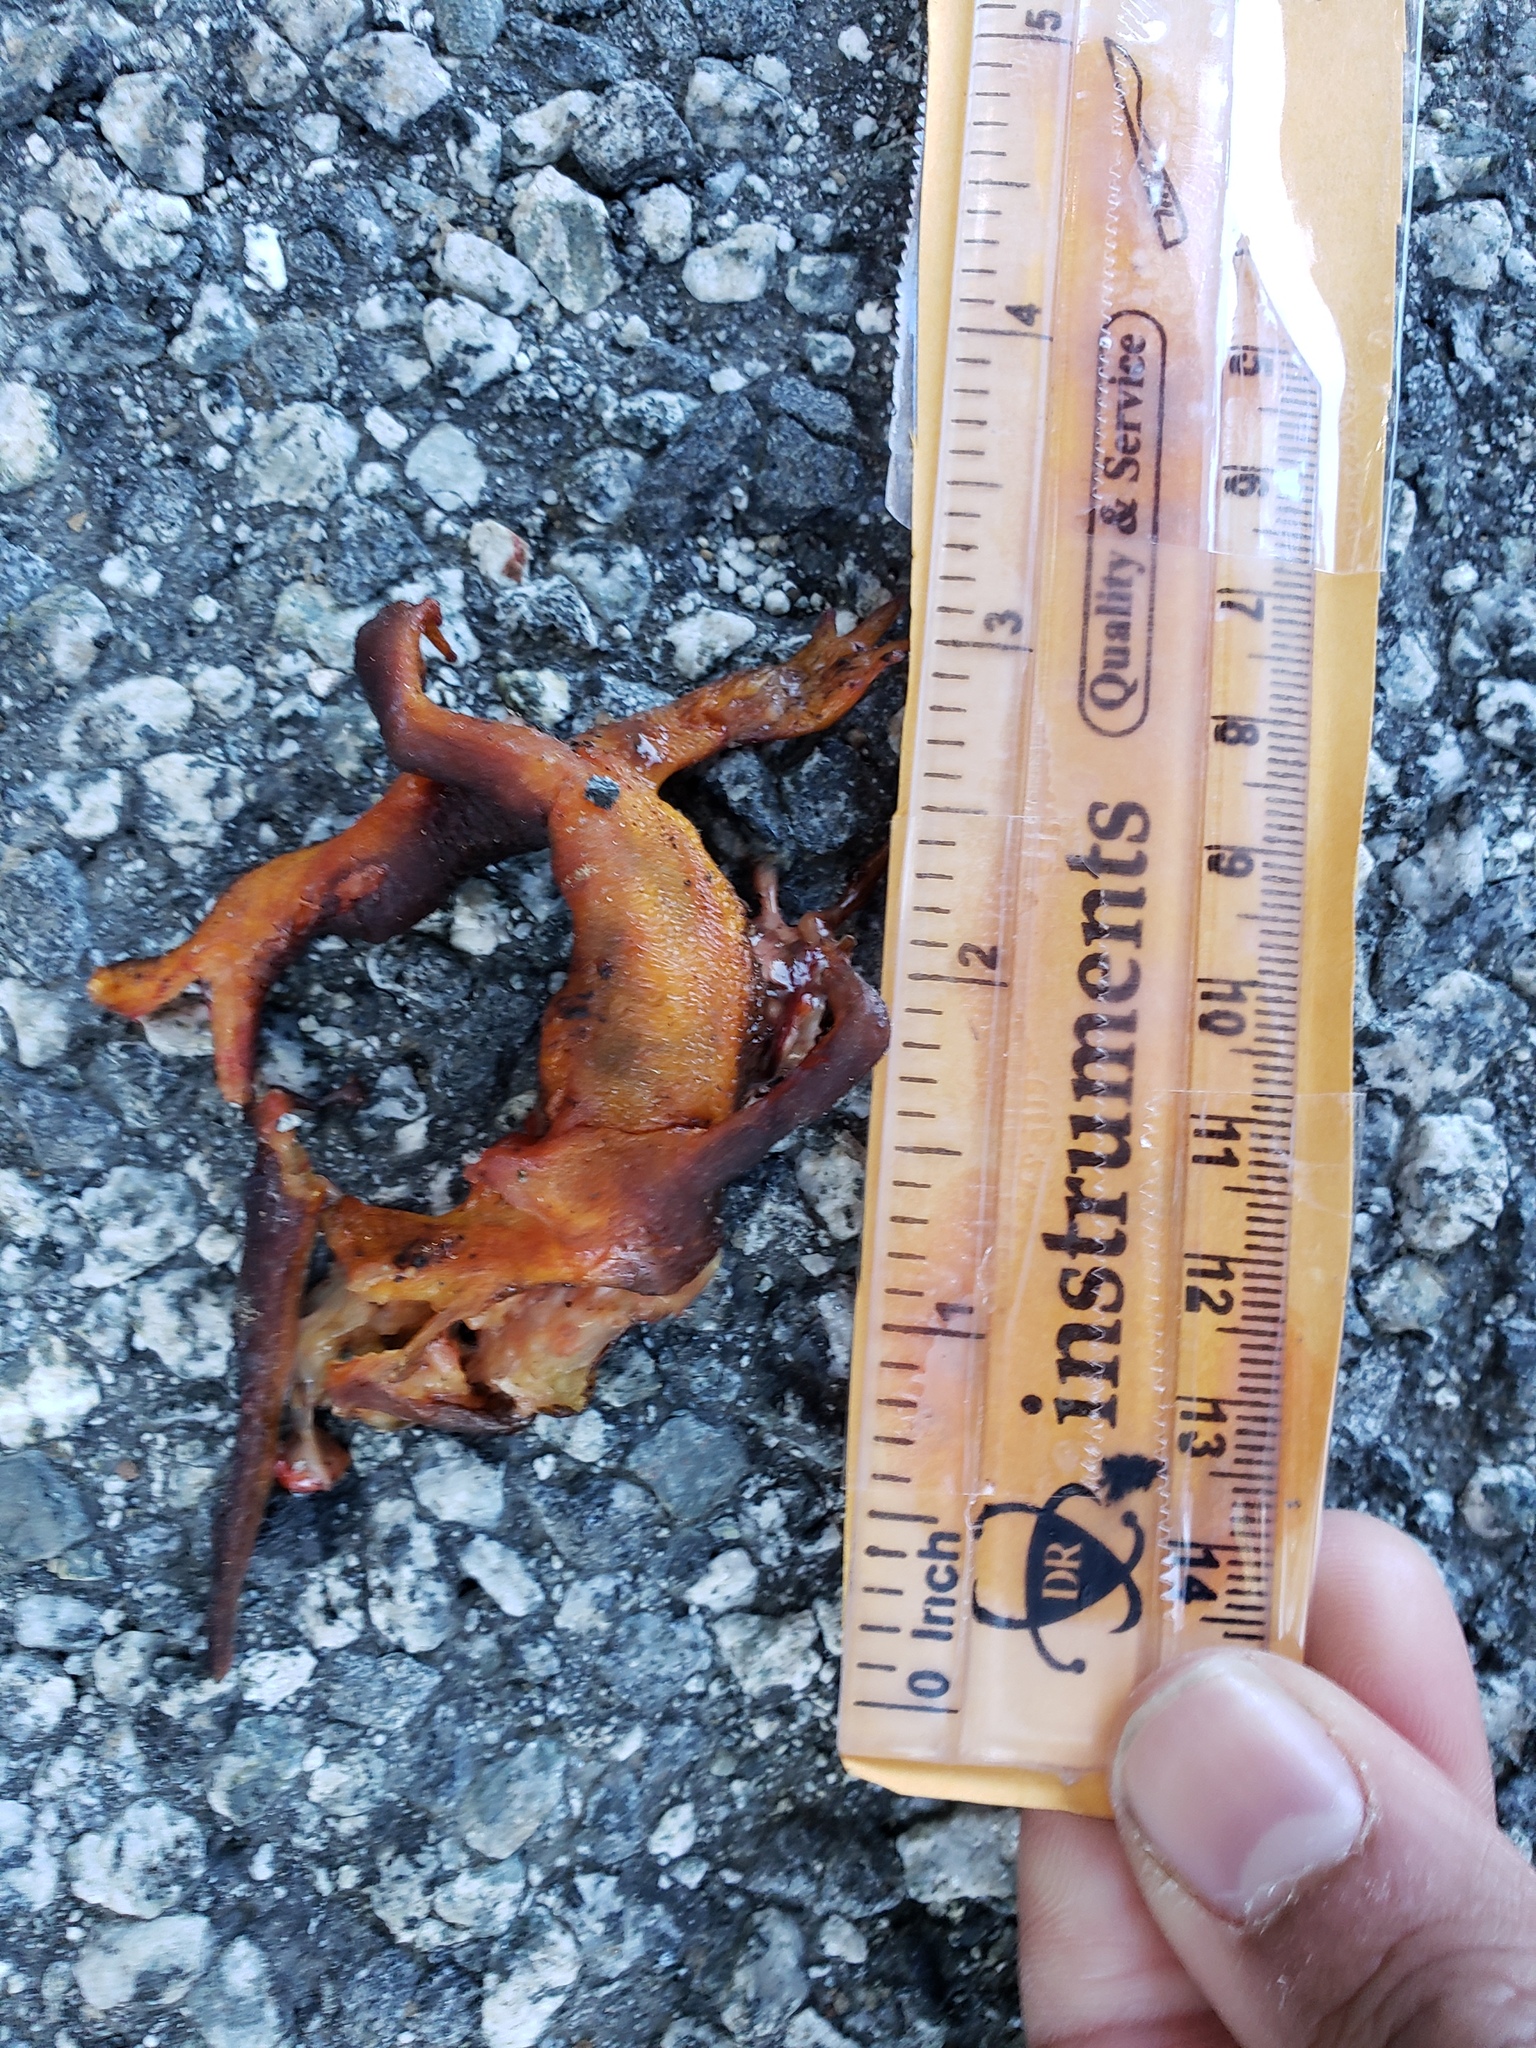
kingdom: Animalia
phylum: Chordata
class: Amphibia
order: Caudata
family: Salamandridae
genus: Taricha
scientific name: Taricha
